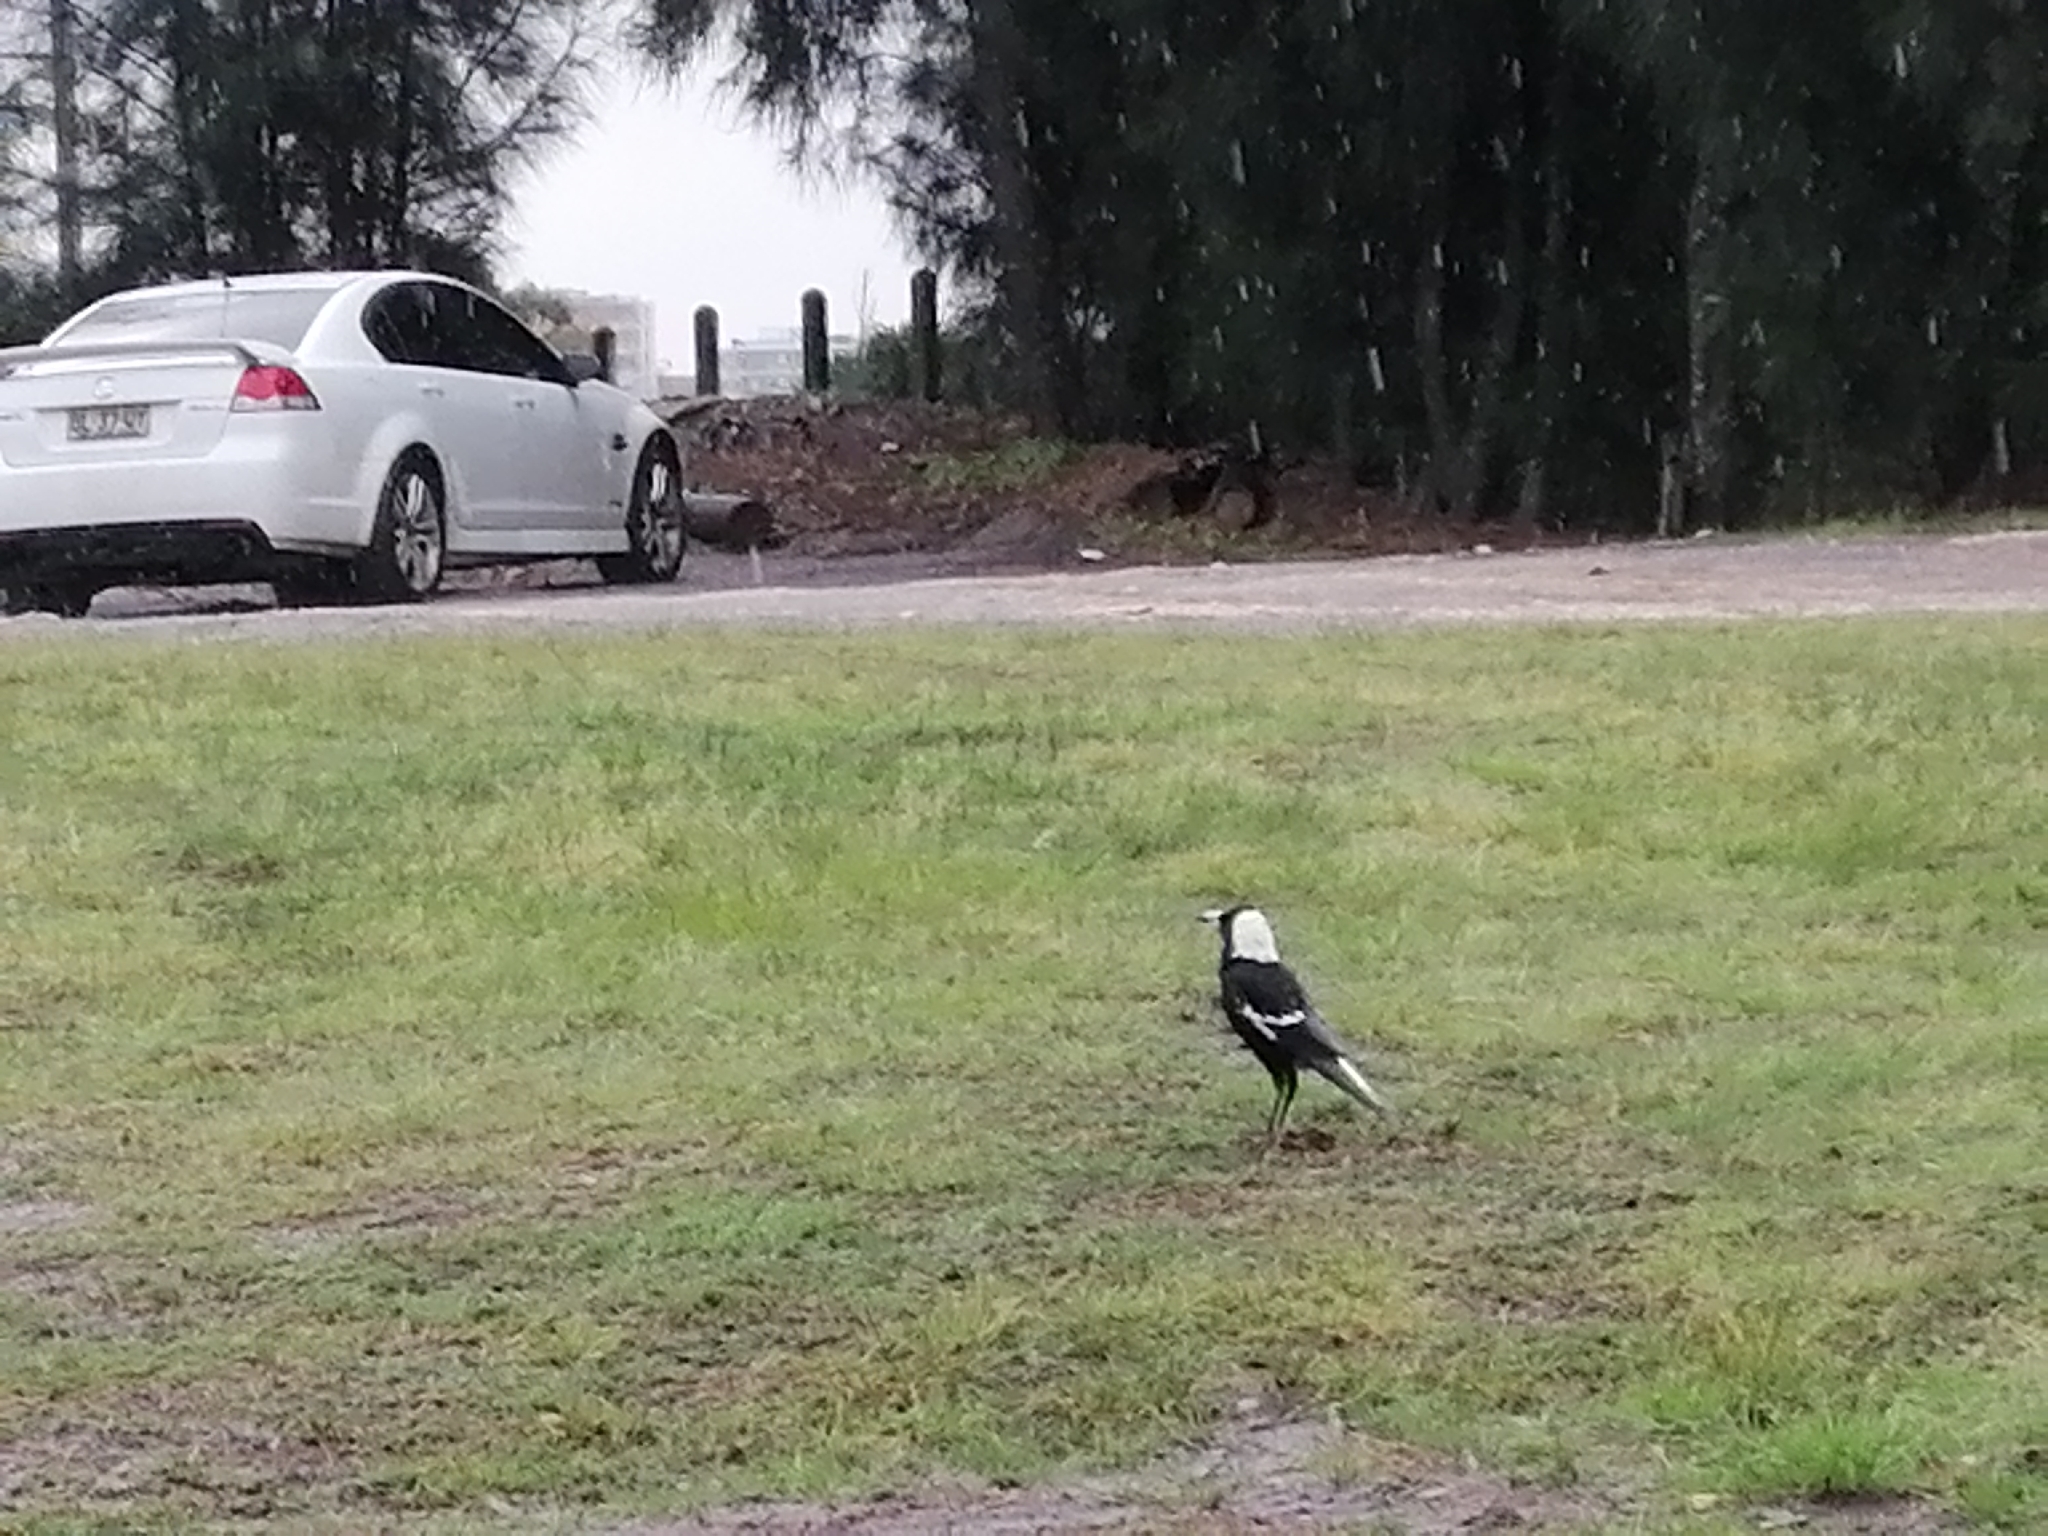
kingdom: Animalia
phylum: Chordata
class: Aves
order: Passeriformes
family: Cracticidae
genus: Gymnorhina
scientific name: Gymnorhina tibicen
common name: Australian magpie
